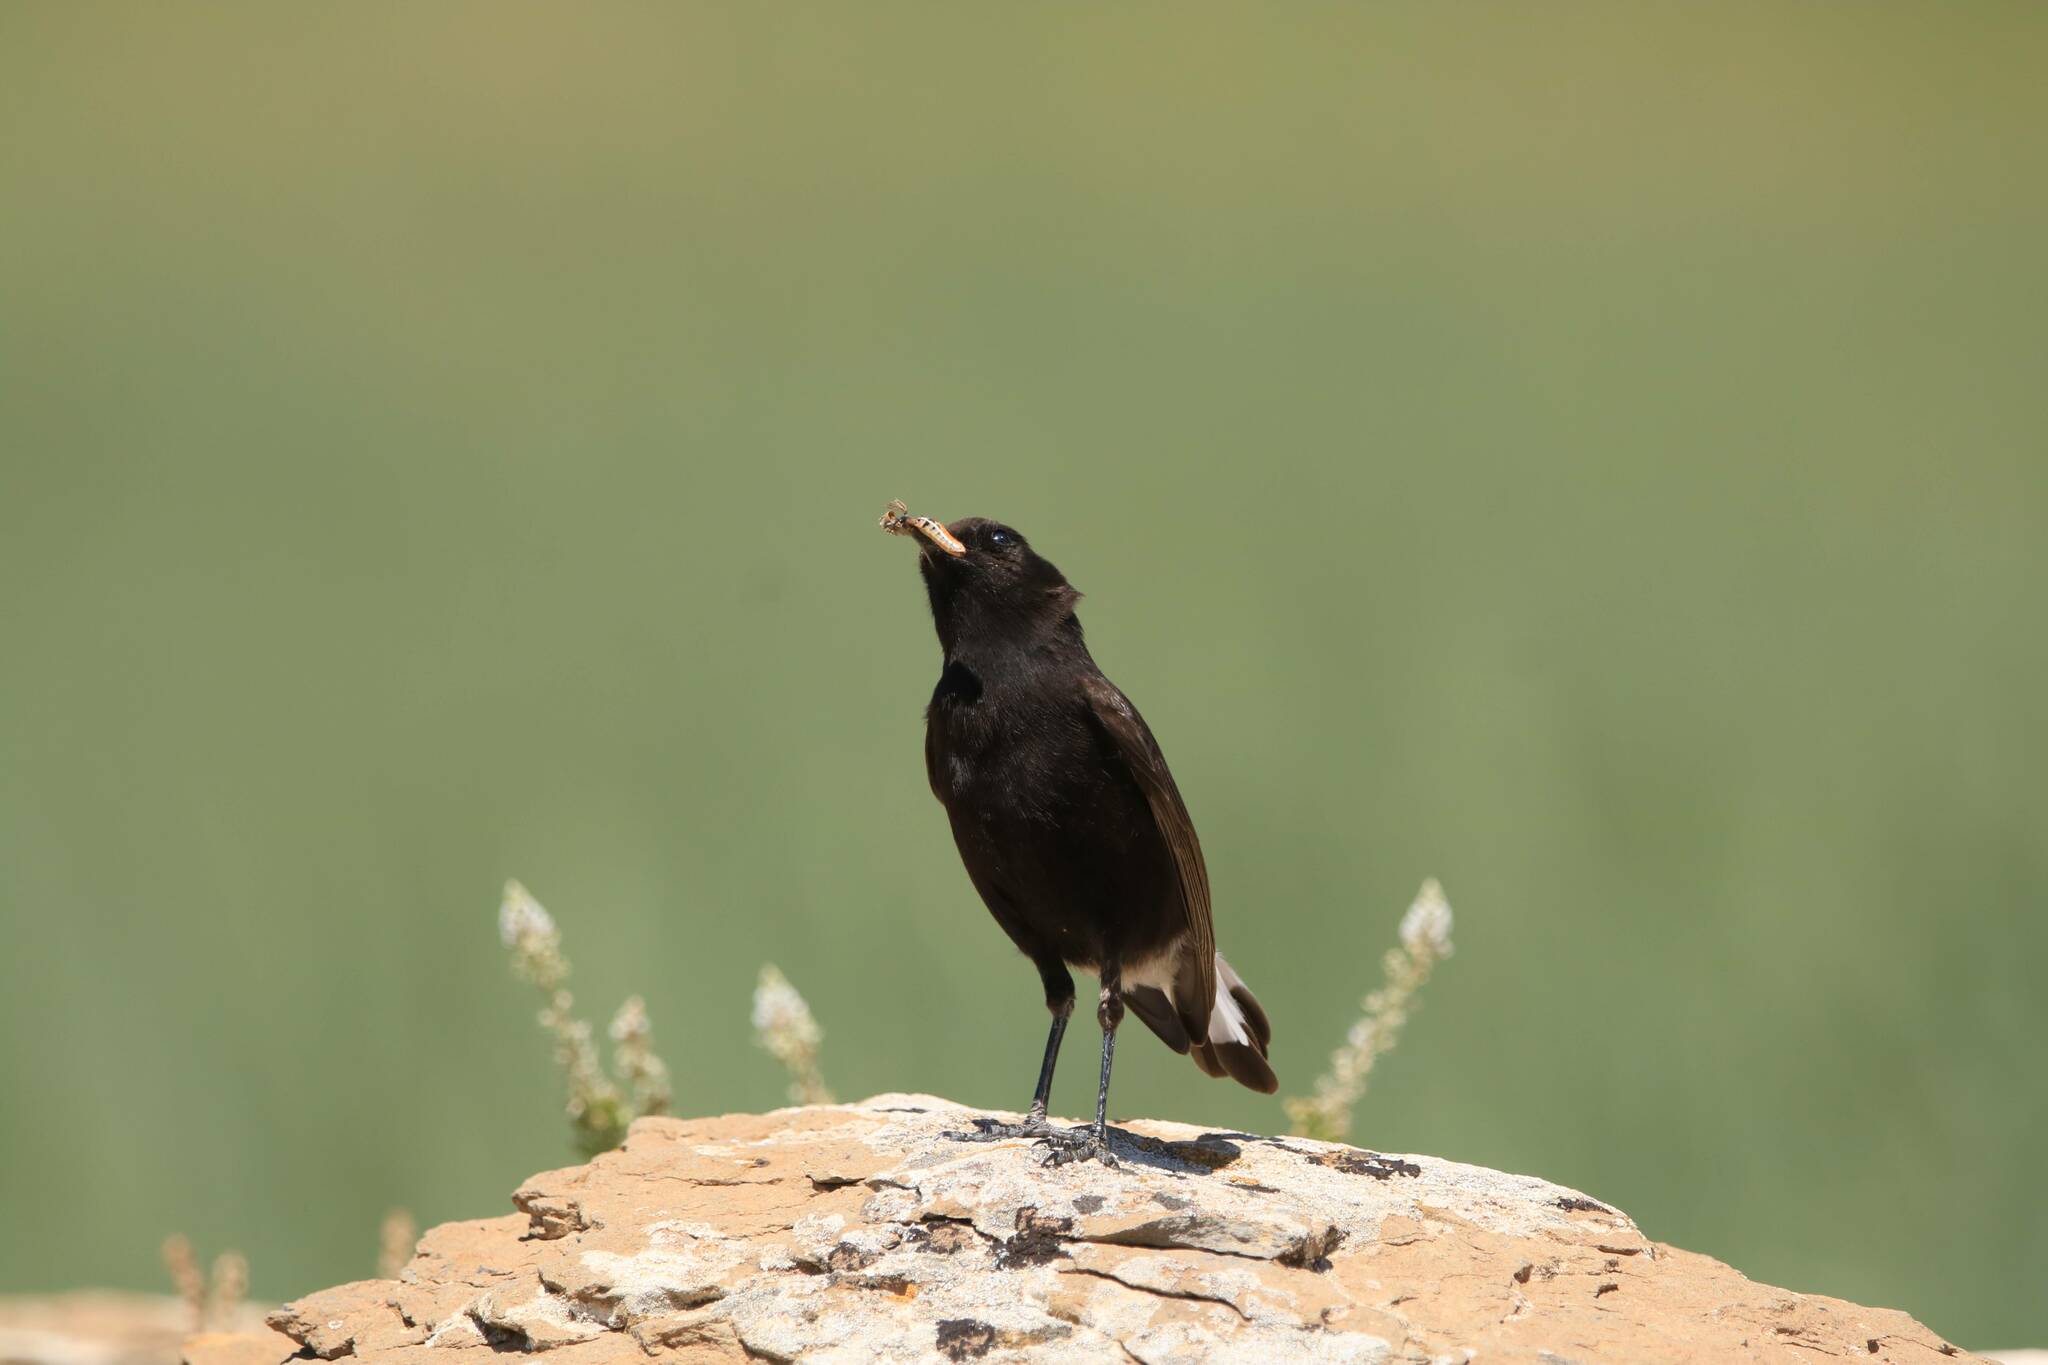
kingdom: Animalia
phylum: Chordata
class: Aves
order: Passeriformes
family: Muscicapidae
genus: Oenanthe
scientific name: Oenanthe leucura
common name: Black wheatear
